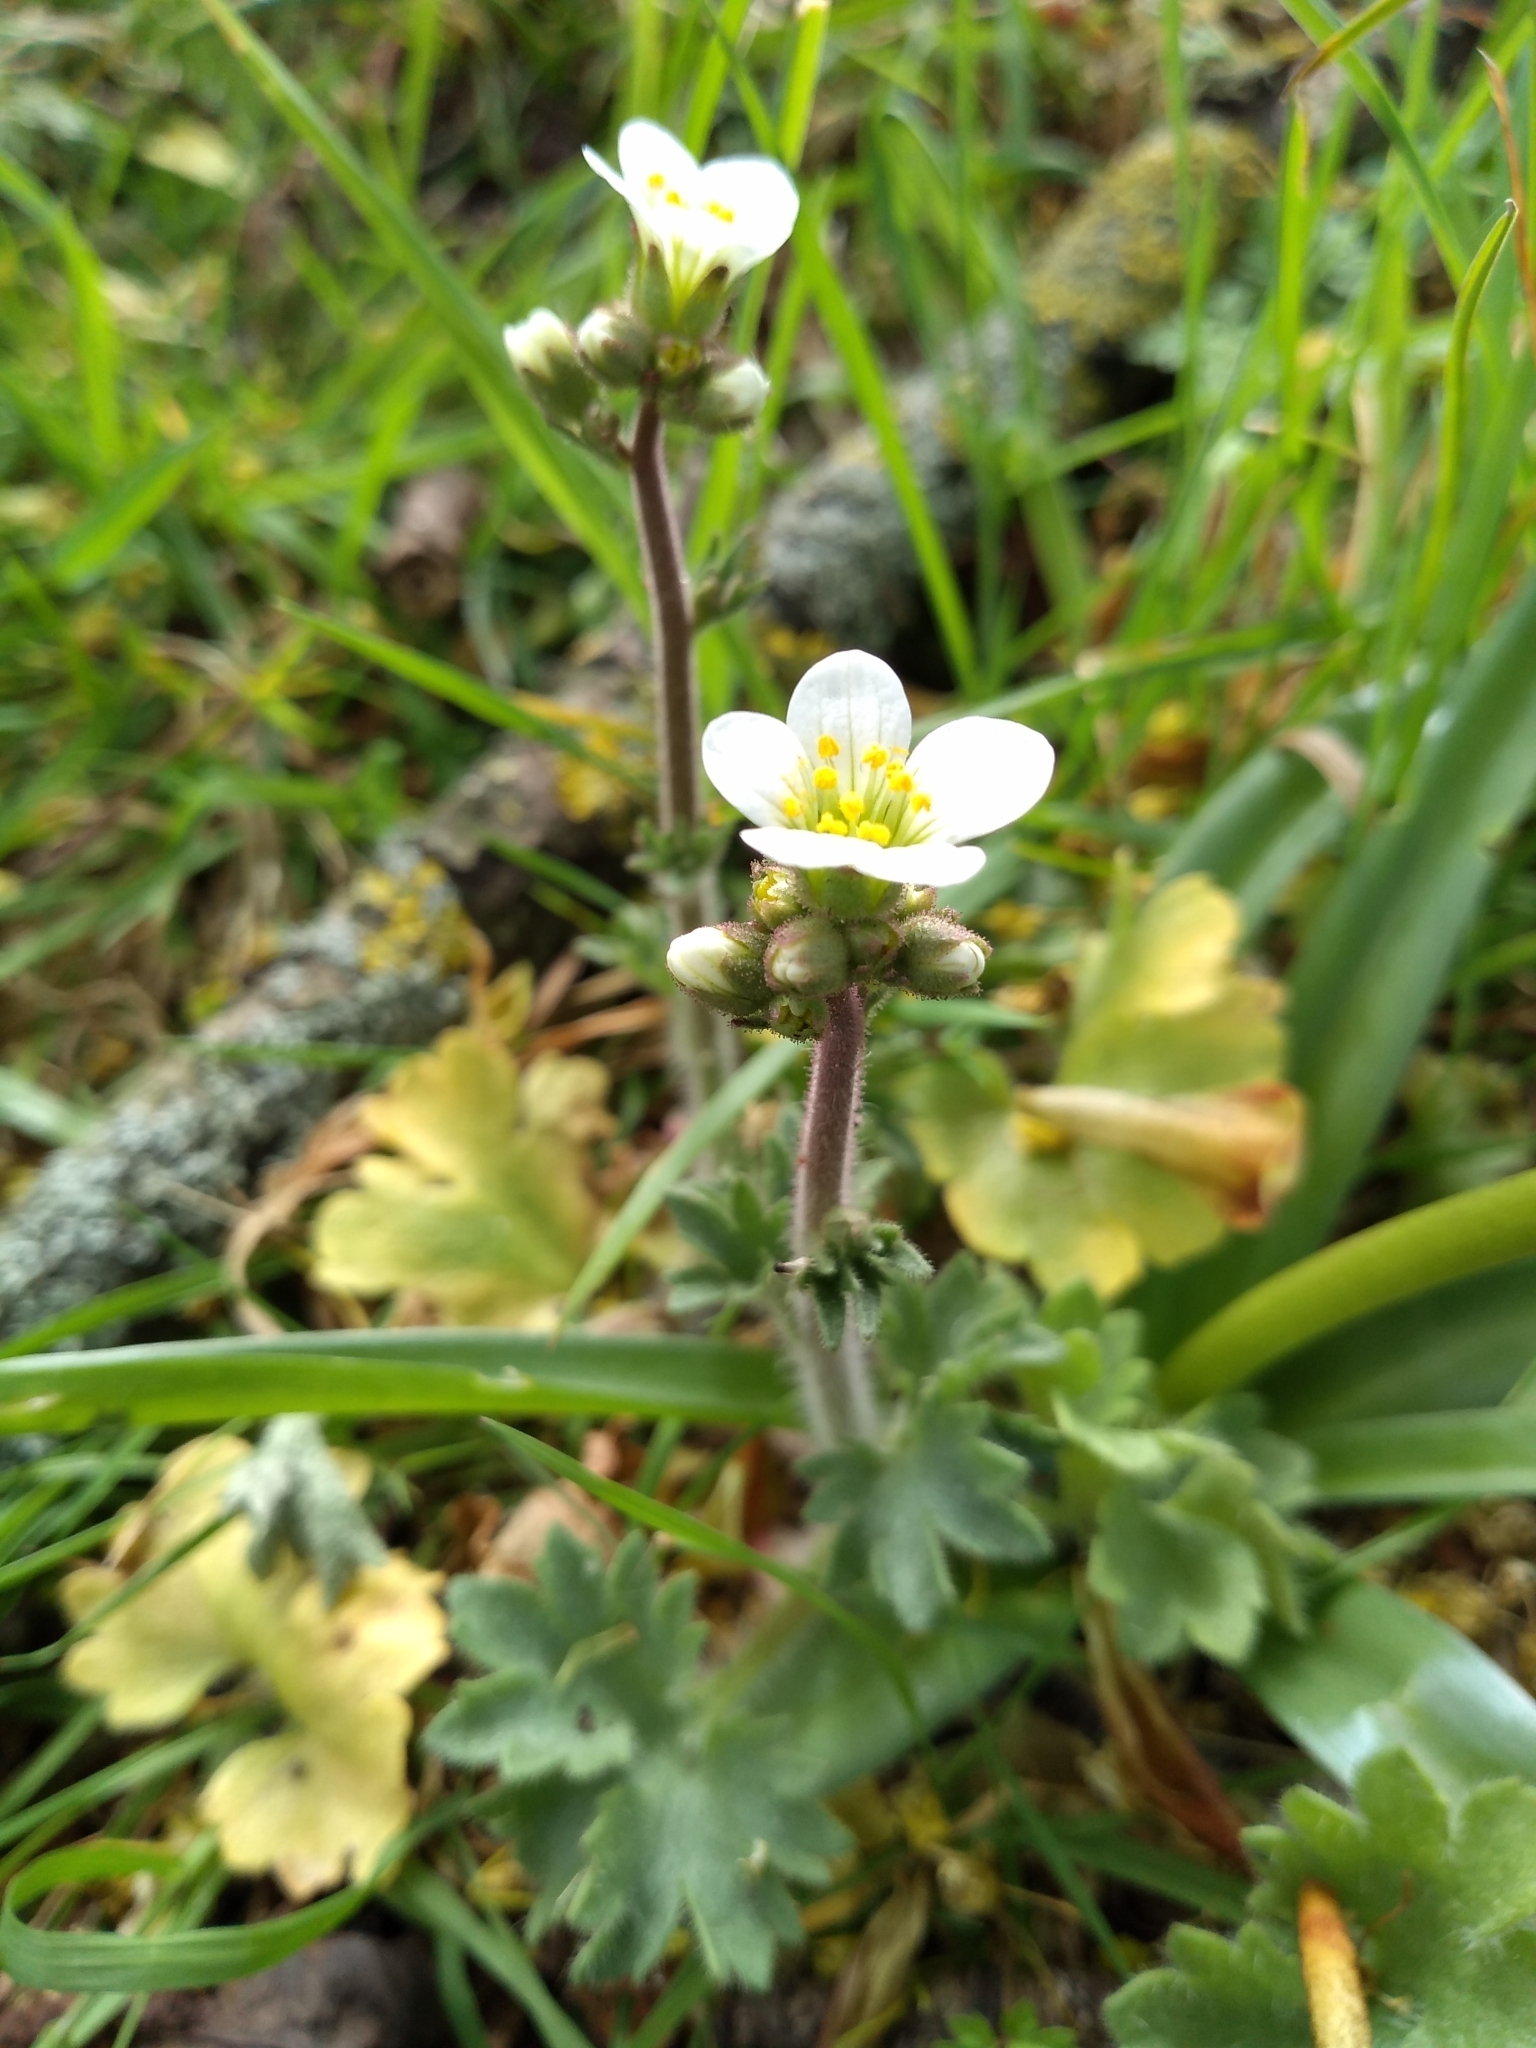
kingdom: Plantae
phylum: Tracheophyta
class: Magnoliopsida
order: Saxifragales
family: Saxifragaceae
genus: Saxifraga
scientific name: Saxifraga granulata
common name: Meadow saxifrage
